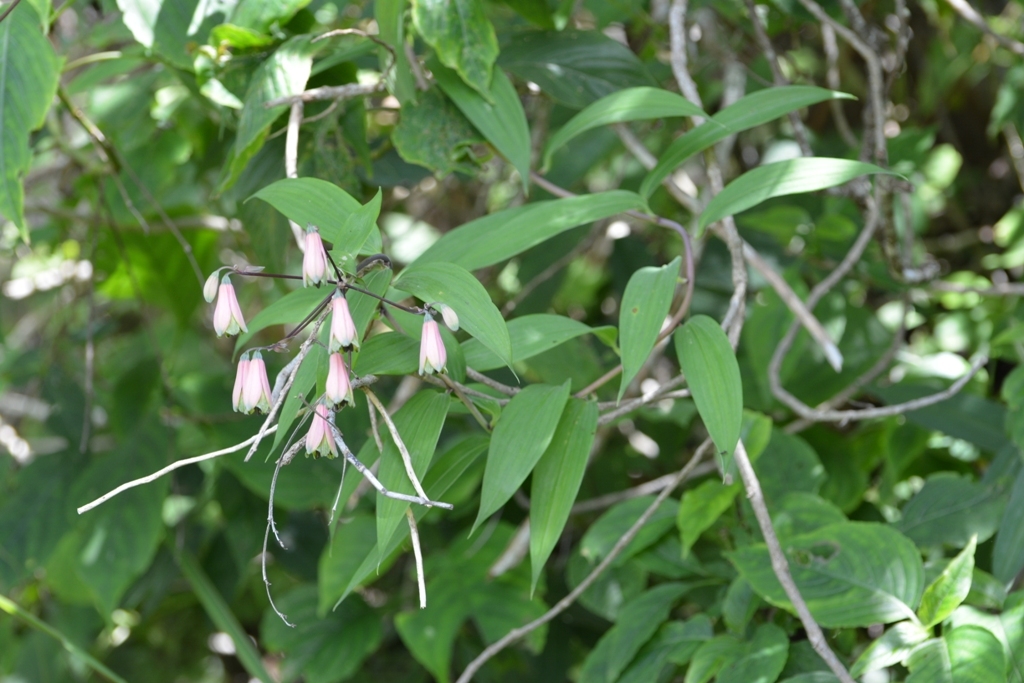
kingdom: Plantae
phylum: Tracheophyta
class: Liliopsida
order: Liliales
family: Alstroemeriaceae
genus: Bomarea
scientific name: Bomarea edulis
